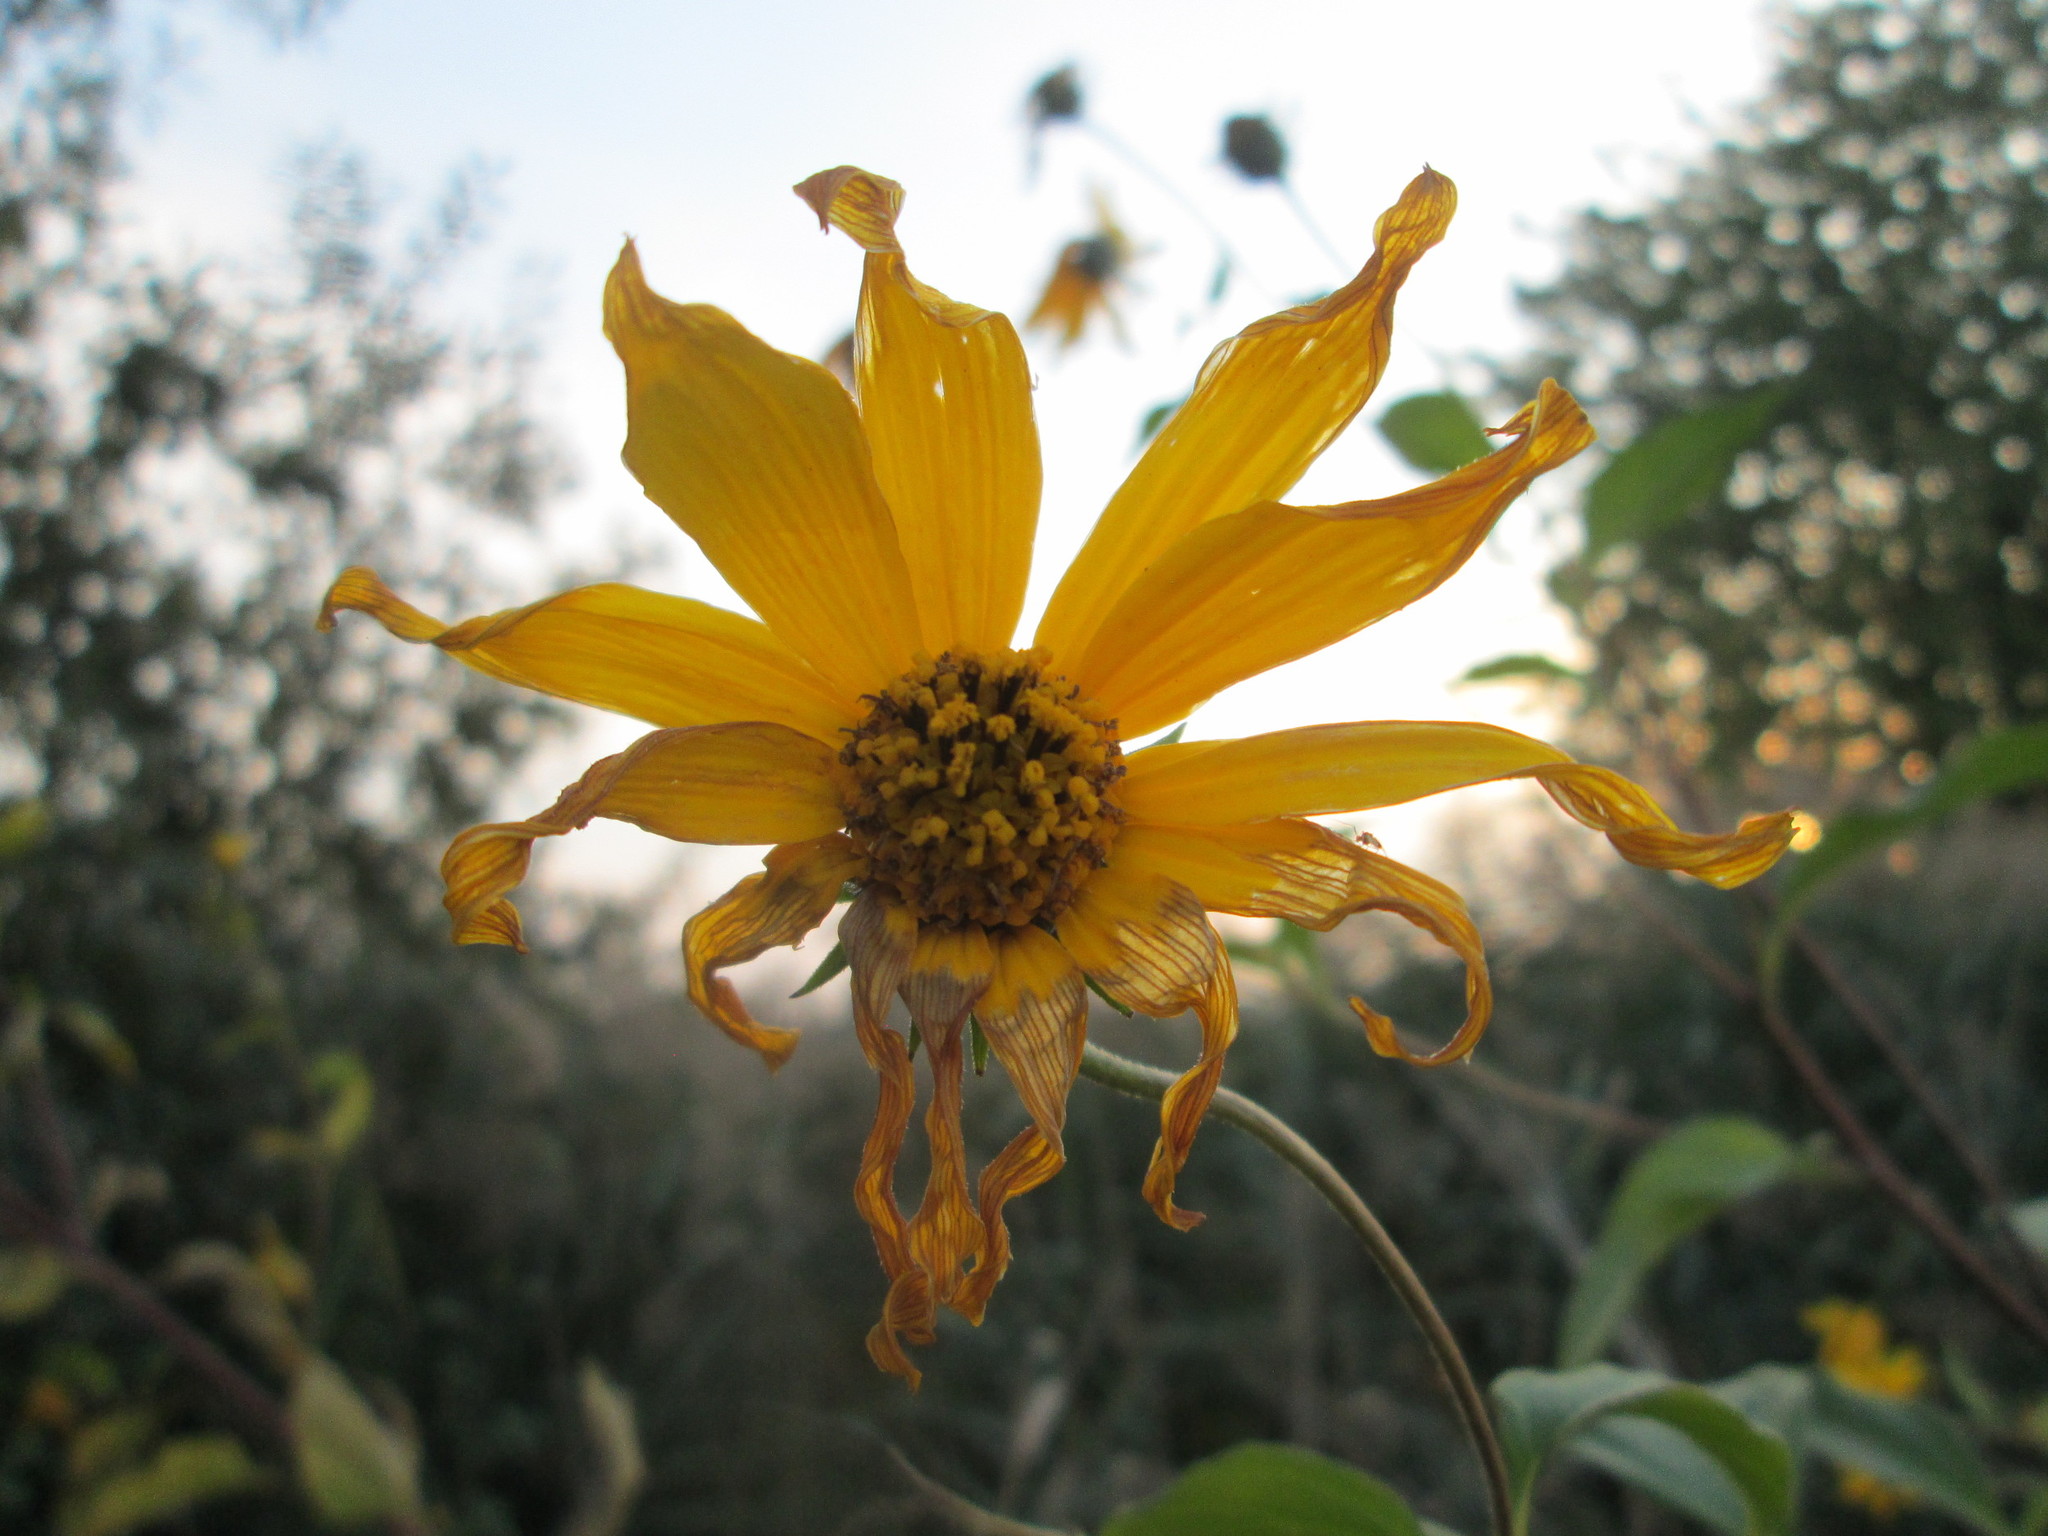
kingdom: Plantae
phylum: Tracheophyta
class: Magnoliopsida
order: Asterales
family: Asteraceae
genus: Helianthus
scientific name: Helianthus tuberosus
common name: Jerusalem artichoke
